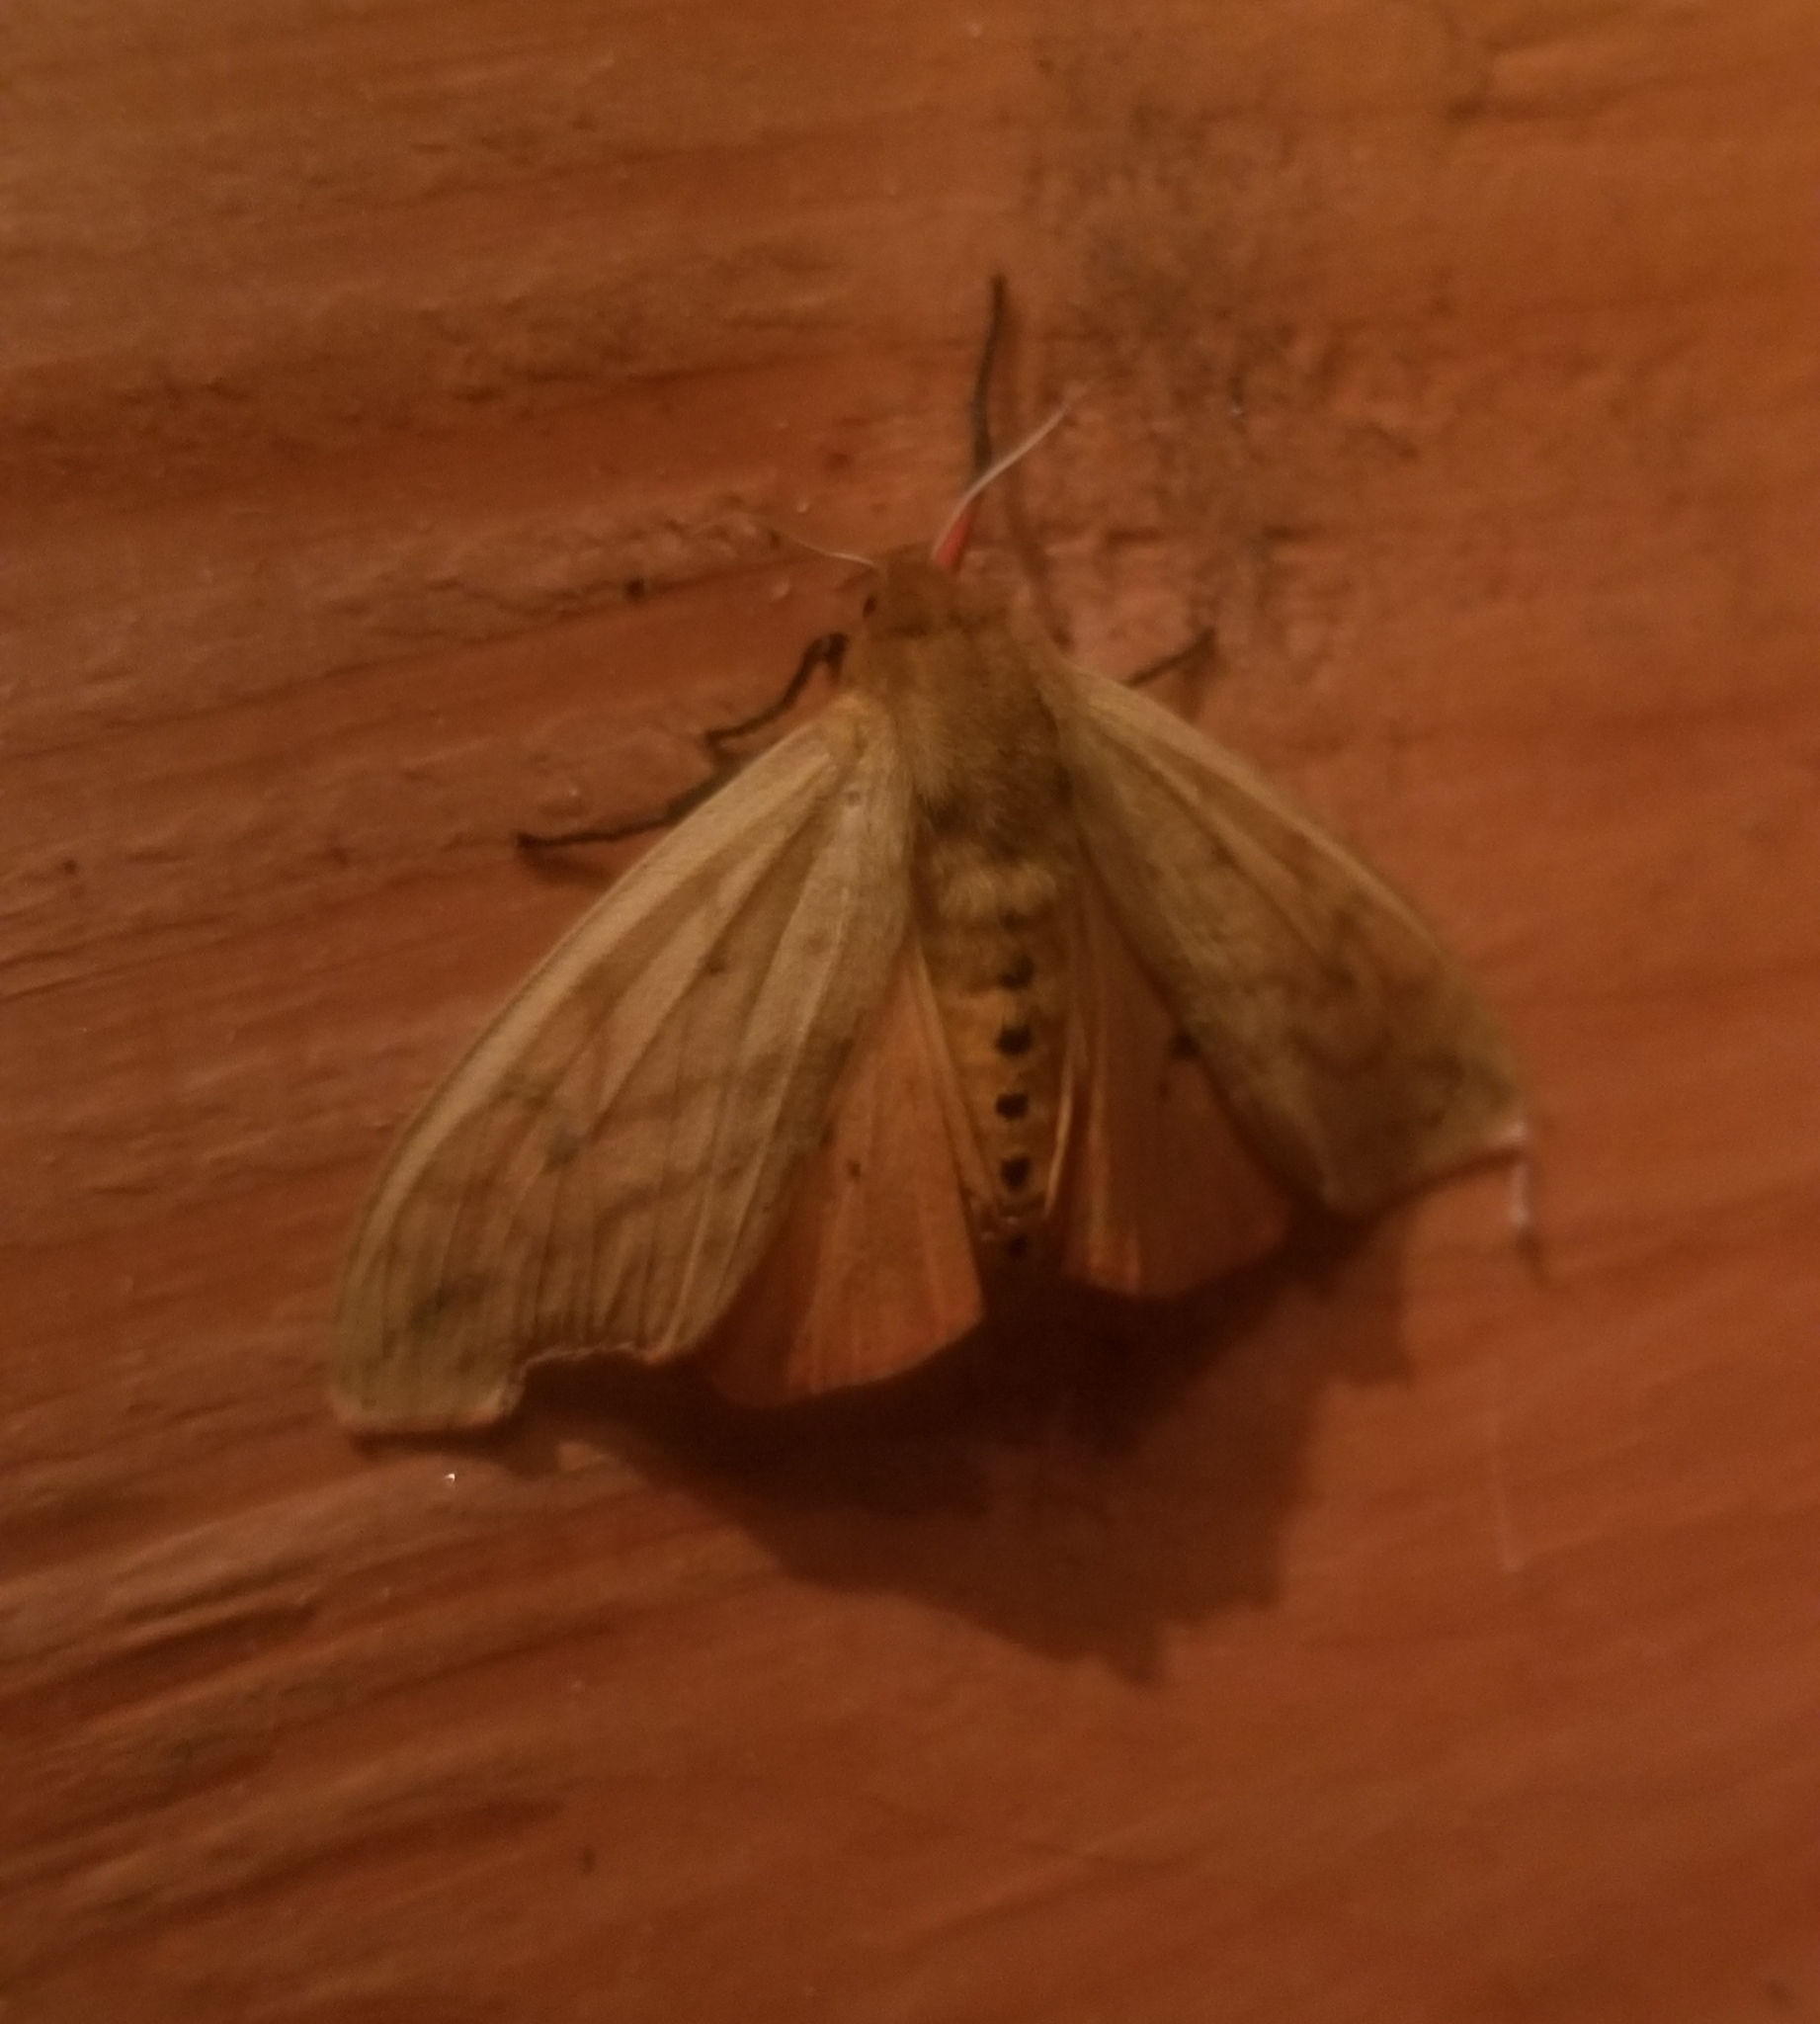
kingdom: Animalia
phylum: Arthropoda
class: Insecta
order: Lepidoptera
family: Erebidae
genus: Pyrrharctia
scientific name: Pyrrharctia isabella
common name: Isabella tiger moth
